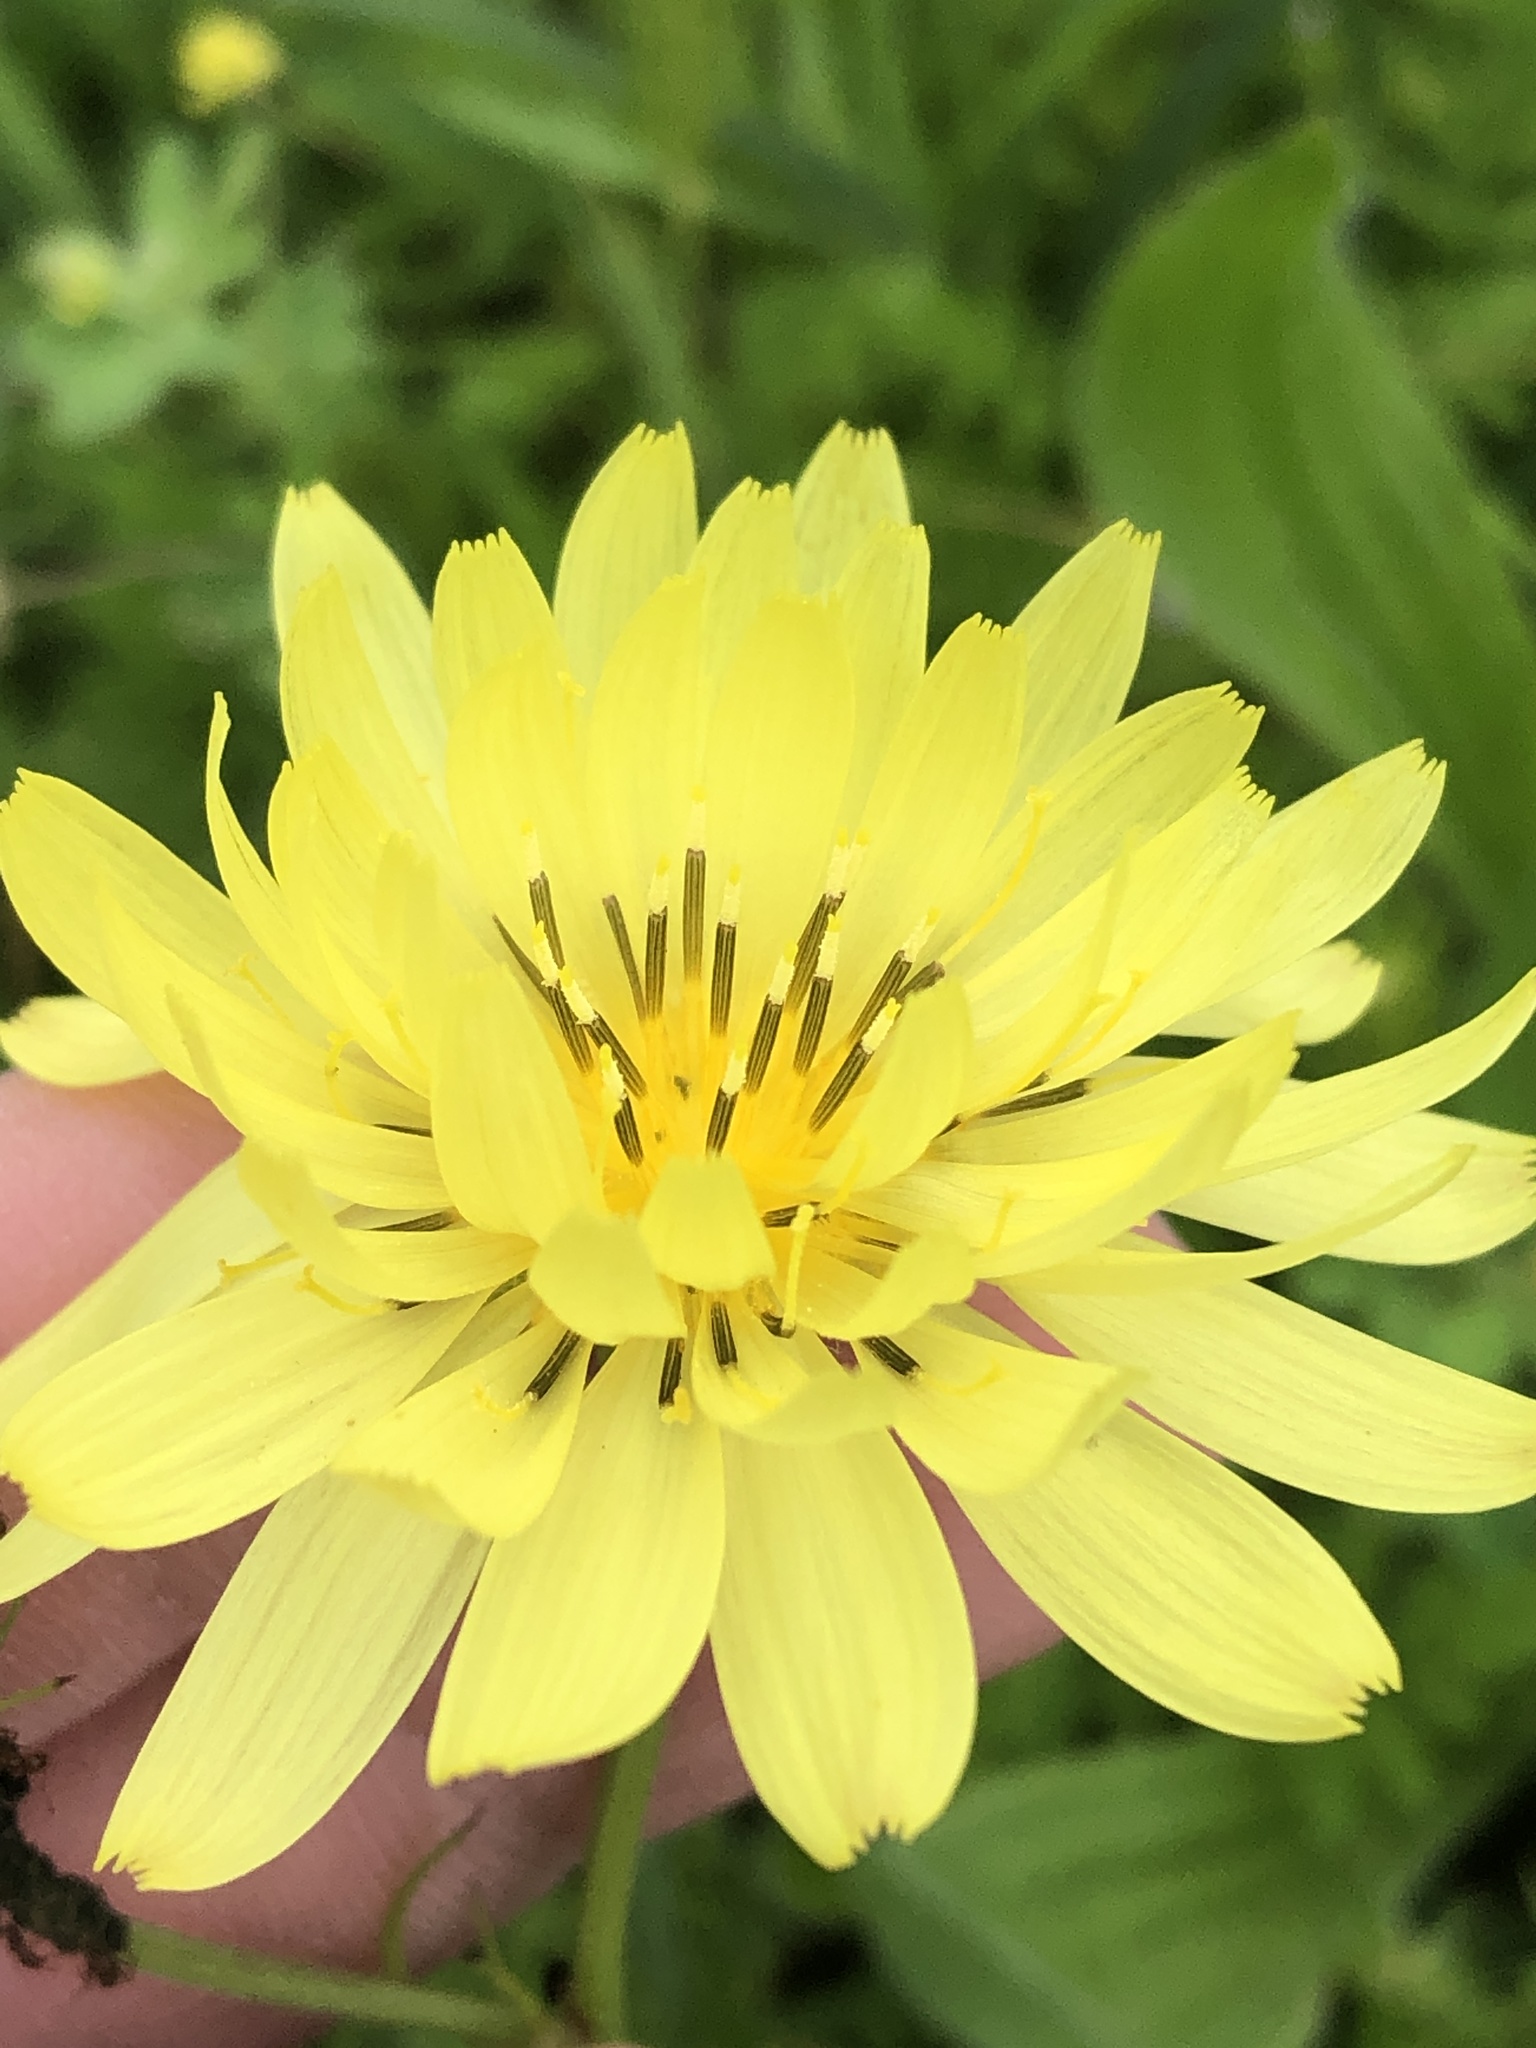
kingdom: Plantae
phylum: Tracheophyta
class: Magnoliopsida
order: Asterales
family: Asteraceae
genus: Pyrrhopappus
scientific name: Pyrrhopappus pauciflorus
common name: Texas false dandelion
